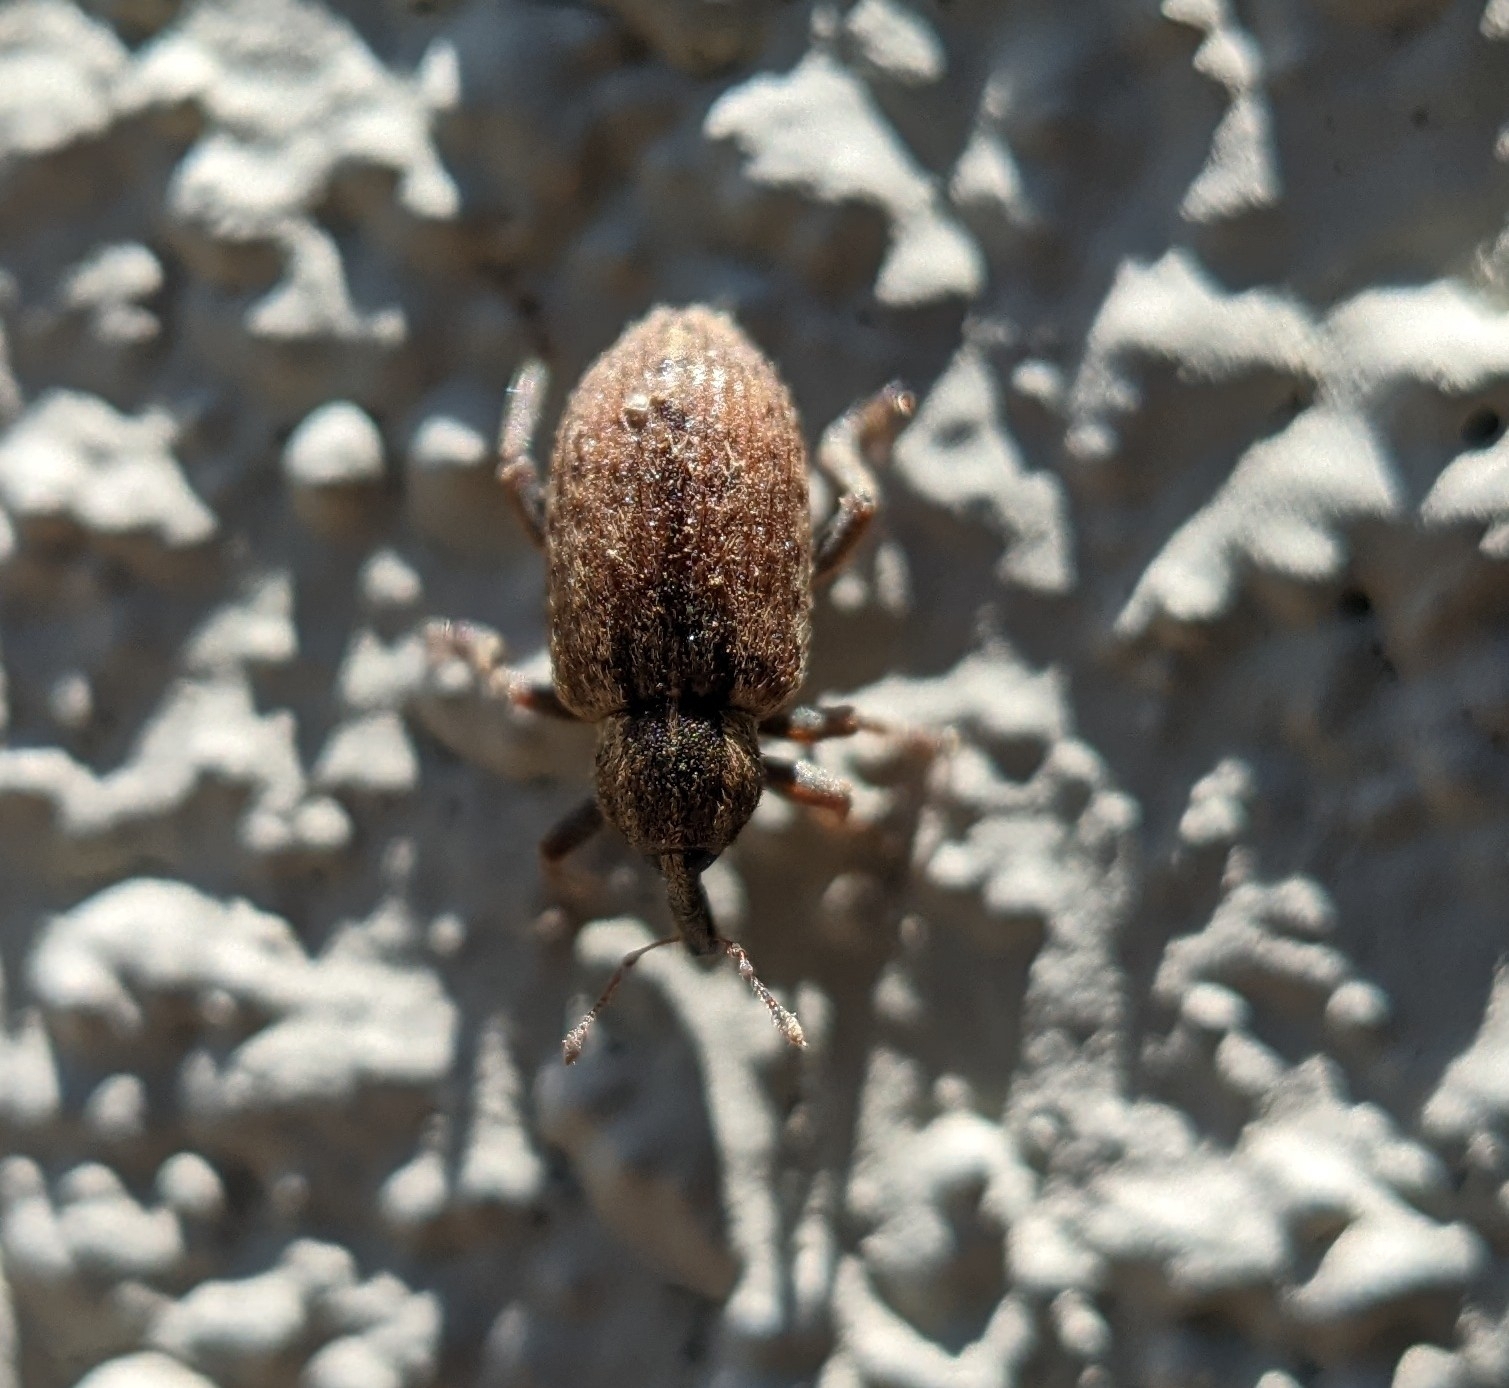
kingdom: Animalia
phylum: Arthropoda
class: Insecta
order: Coleoptera
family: Curculionidae
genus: Hypera
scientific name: Hypera postica
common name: Weevil
